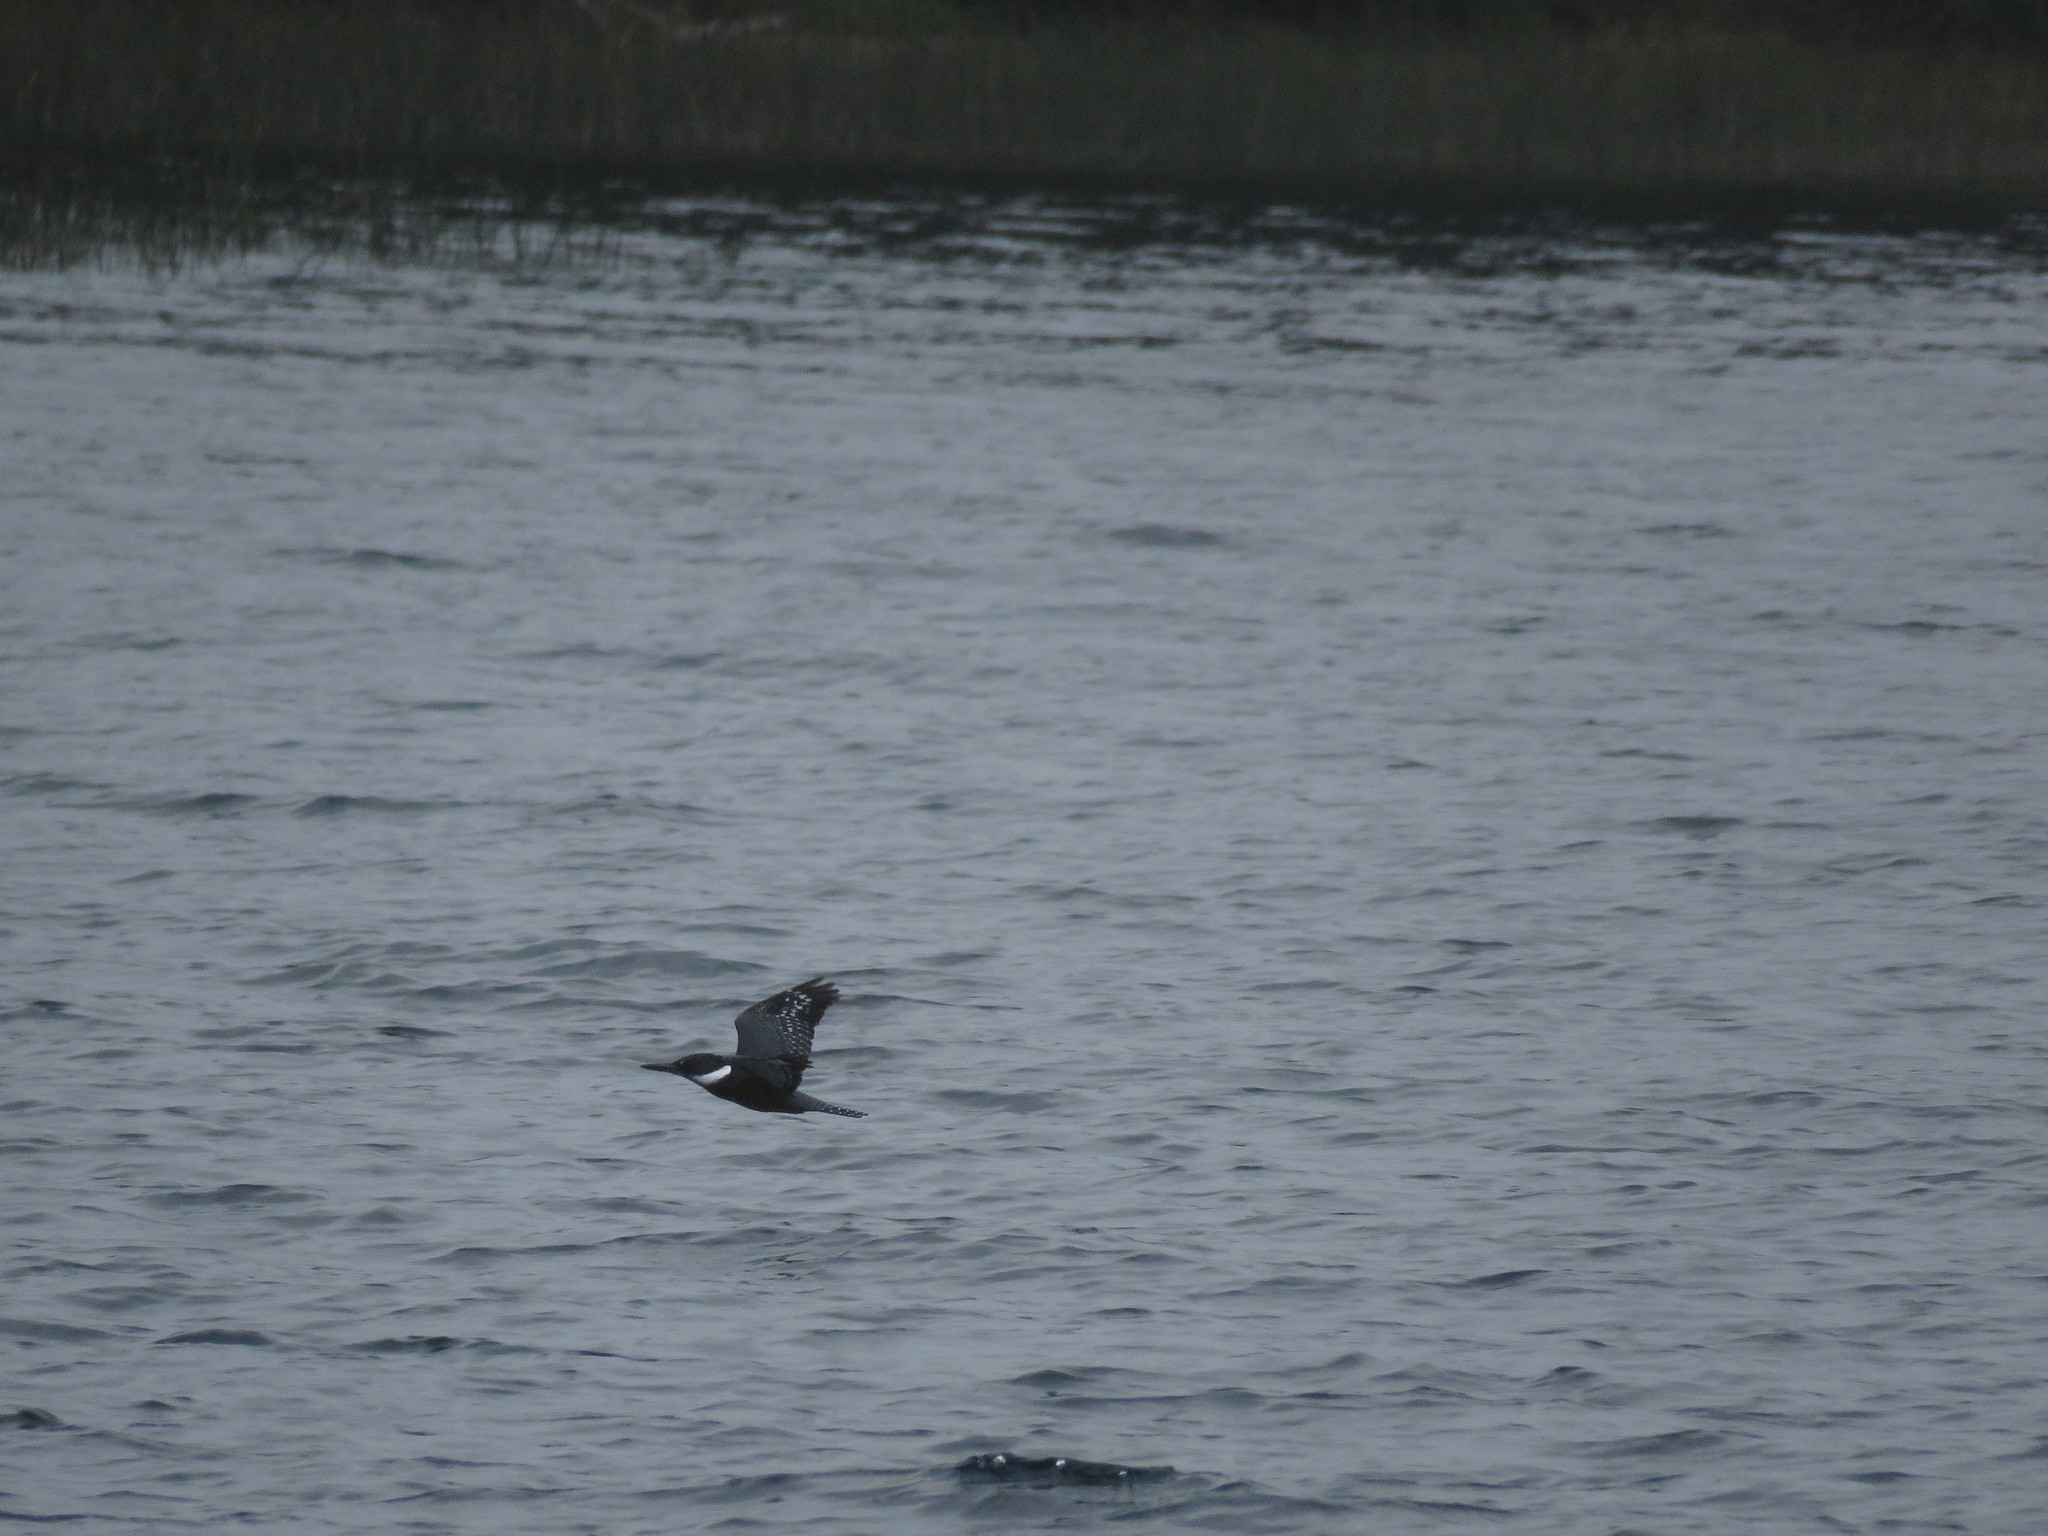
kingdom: Animalia
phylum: Chordata
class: Aves
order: Coraciiformes
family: Alcedinidae
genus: Megaceryle
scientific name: Megaceryle torquata
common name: Ringed kingfisher
